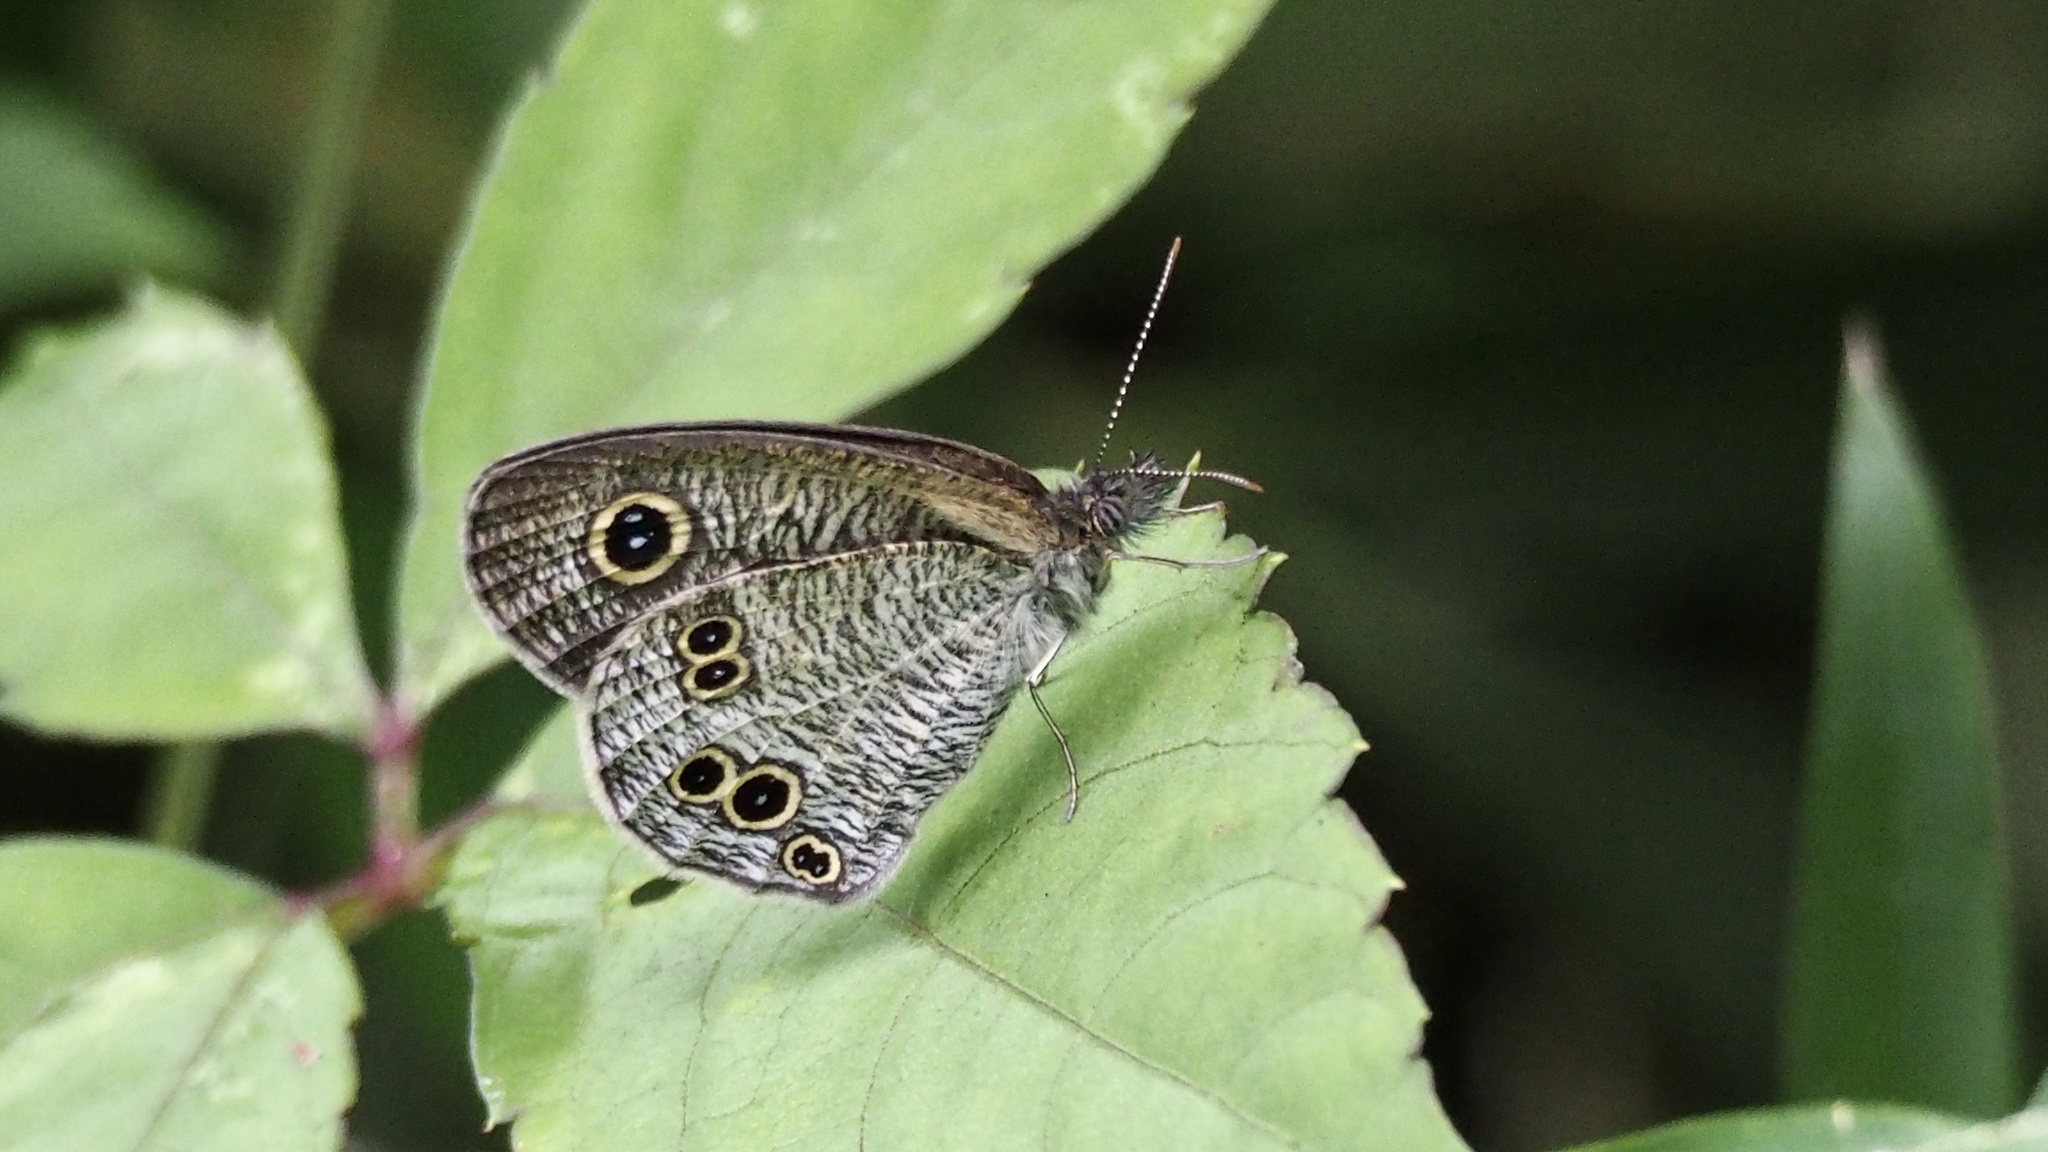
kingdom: Animalia
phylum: Arthropoda
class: Insecta
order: Lepidoptera
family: Nymphalidae
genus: Ypthima
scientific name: Ypthima argus
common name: Common fivering
